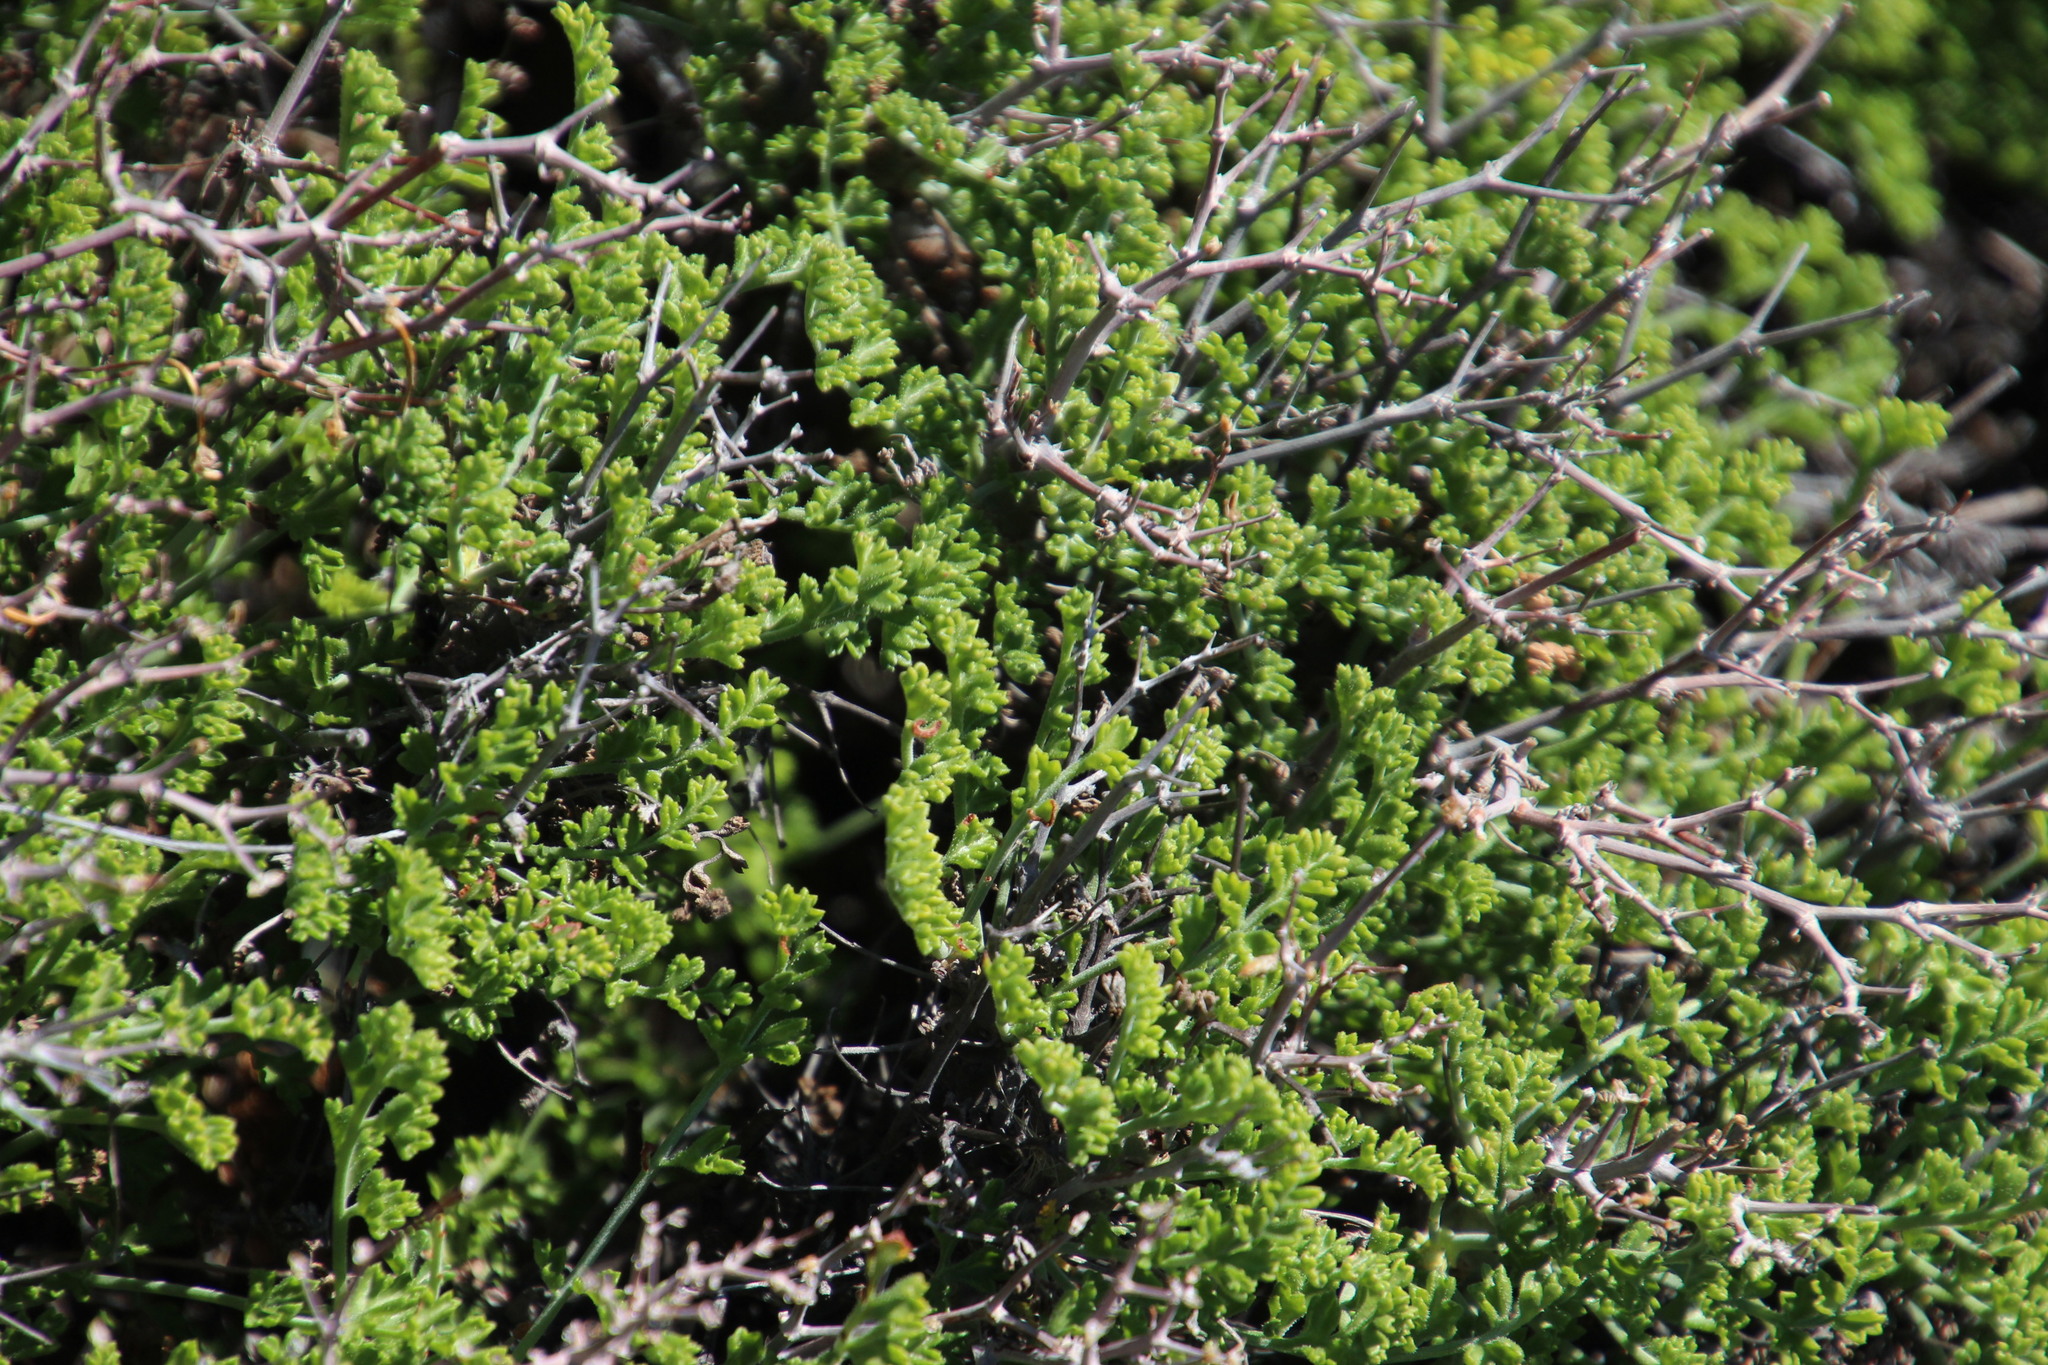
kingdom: Plantae
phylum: Tracheophyta
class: Magnoliopsida
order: Geraniales
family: Geraniaceae
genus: Pelargonium
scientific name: Pelargonium dasyphyllum
